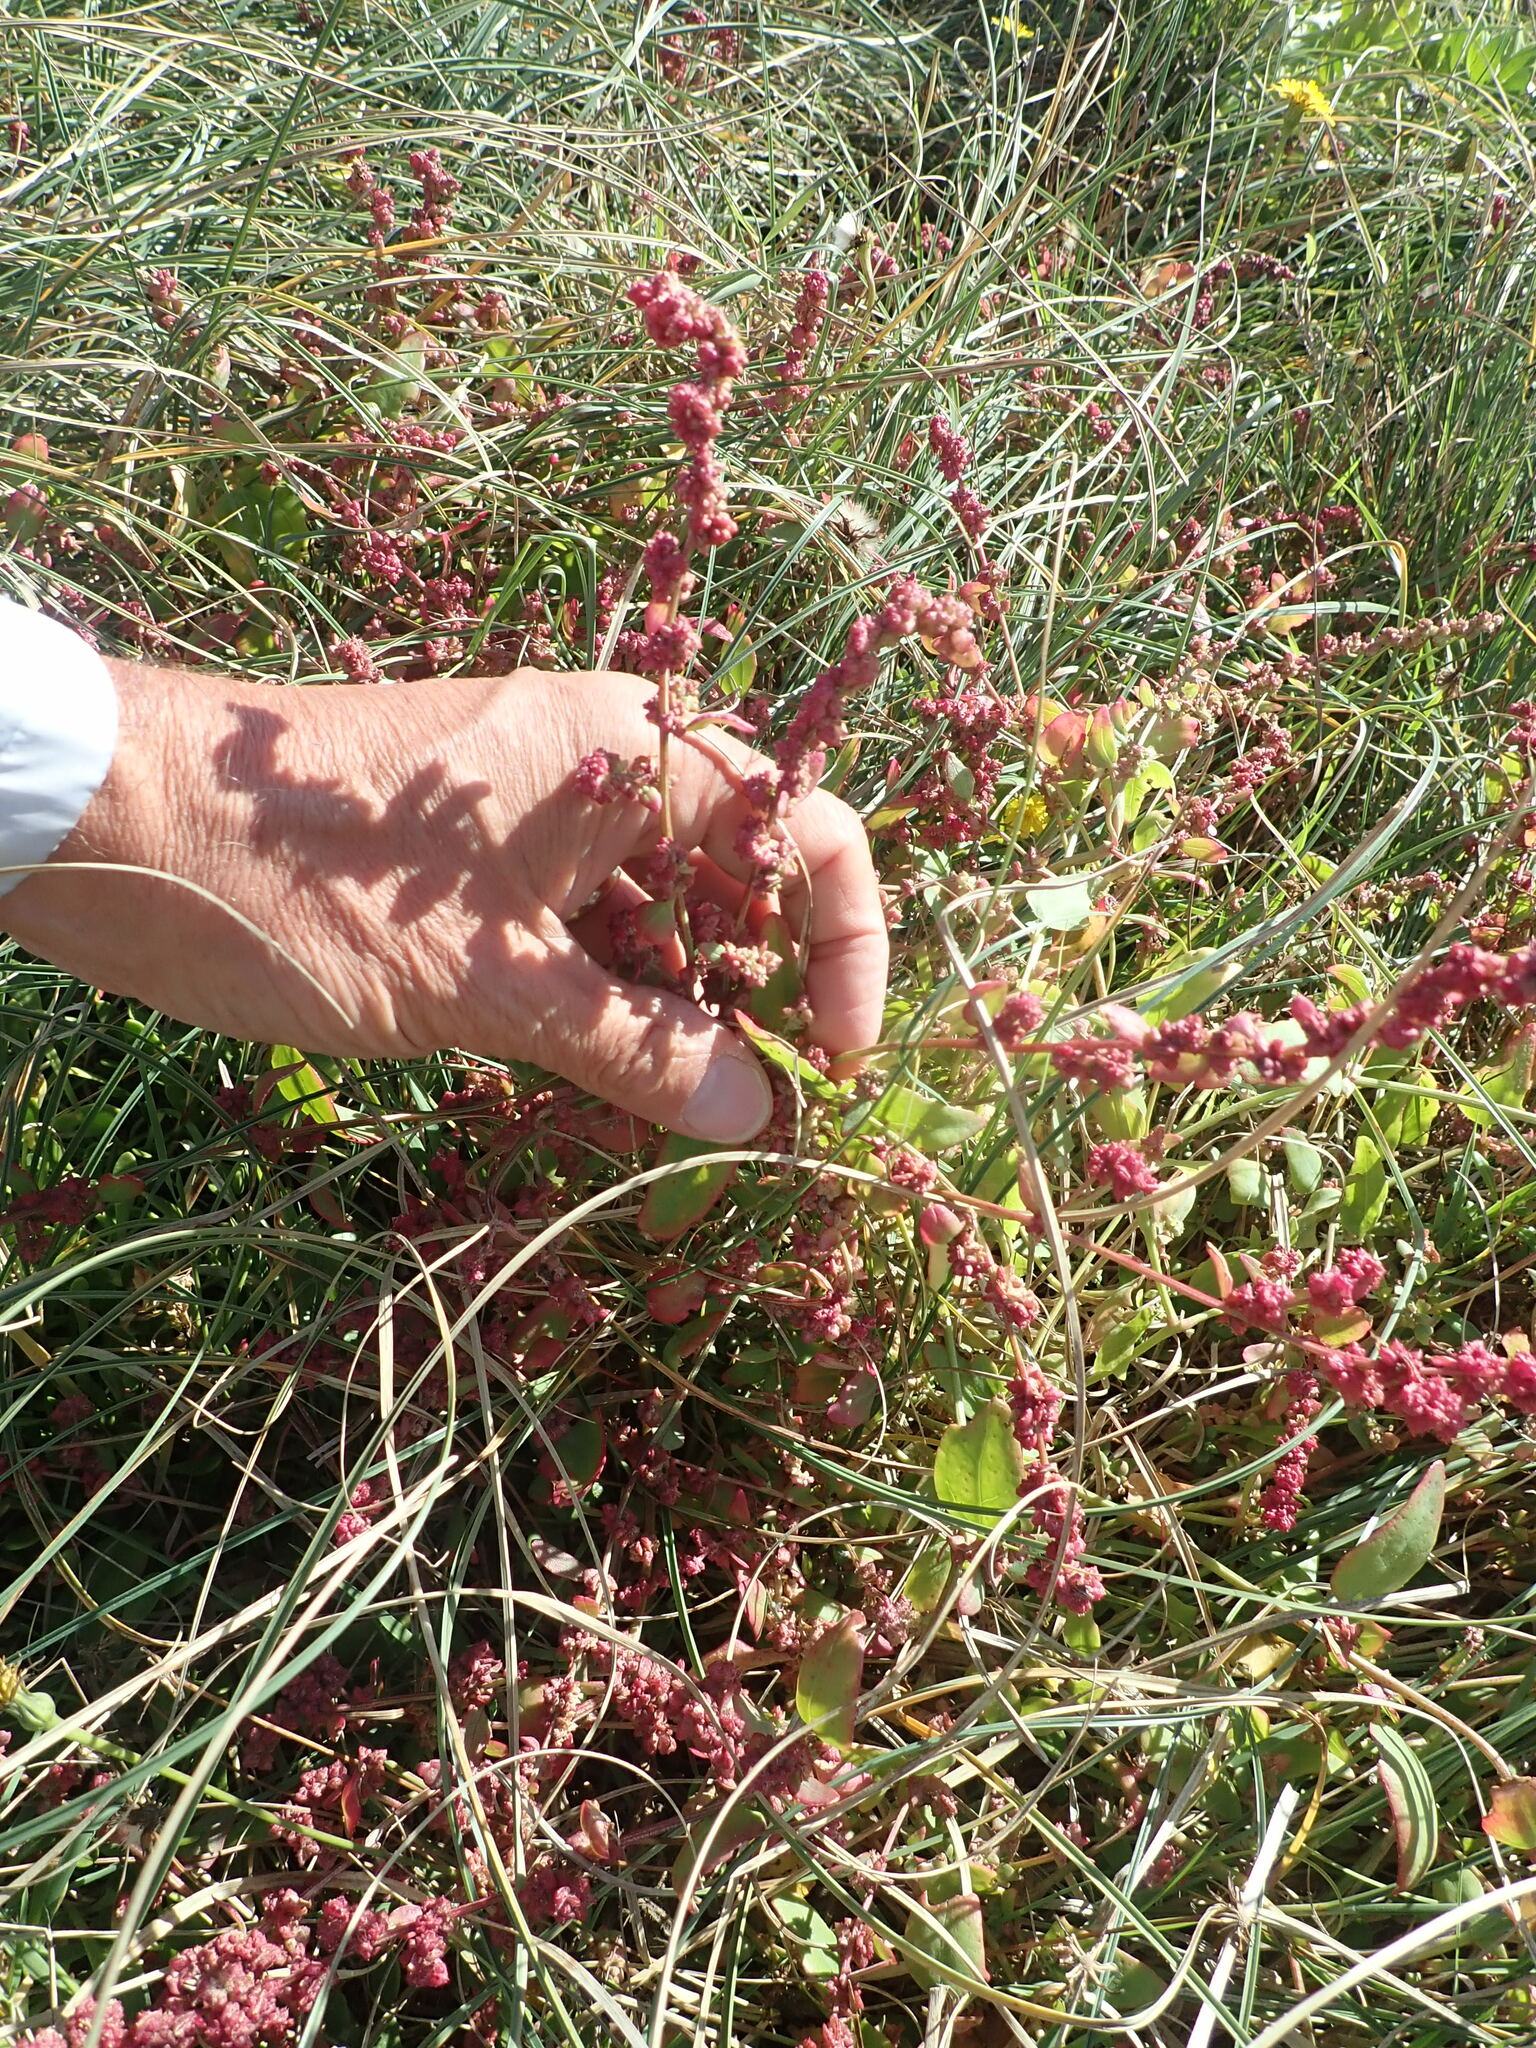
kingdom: Plantae
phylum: Tracheophyta
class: Magnoliopsida
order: Caryophyllales
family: Amaranthaceae
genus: Atriplex
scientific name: Atriplex prostrata
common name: Spear-leaved orache
